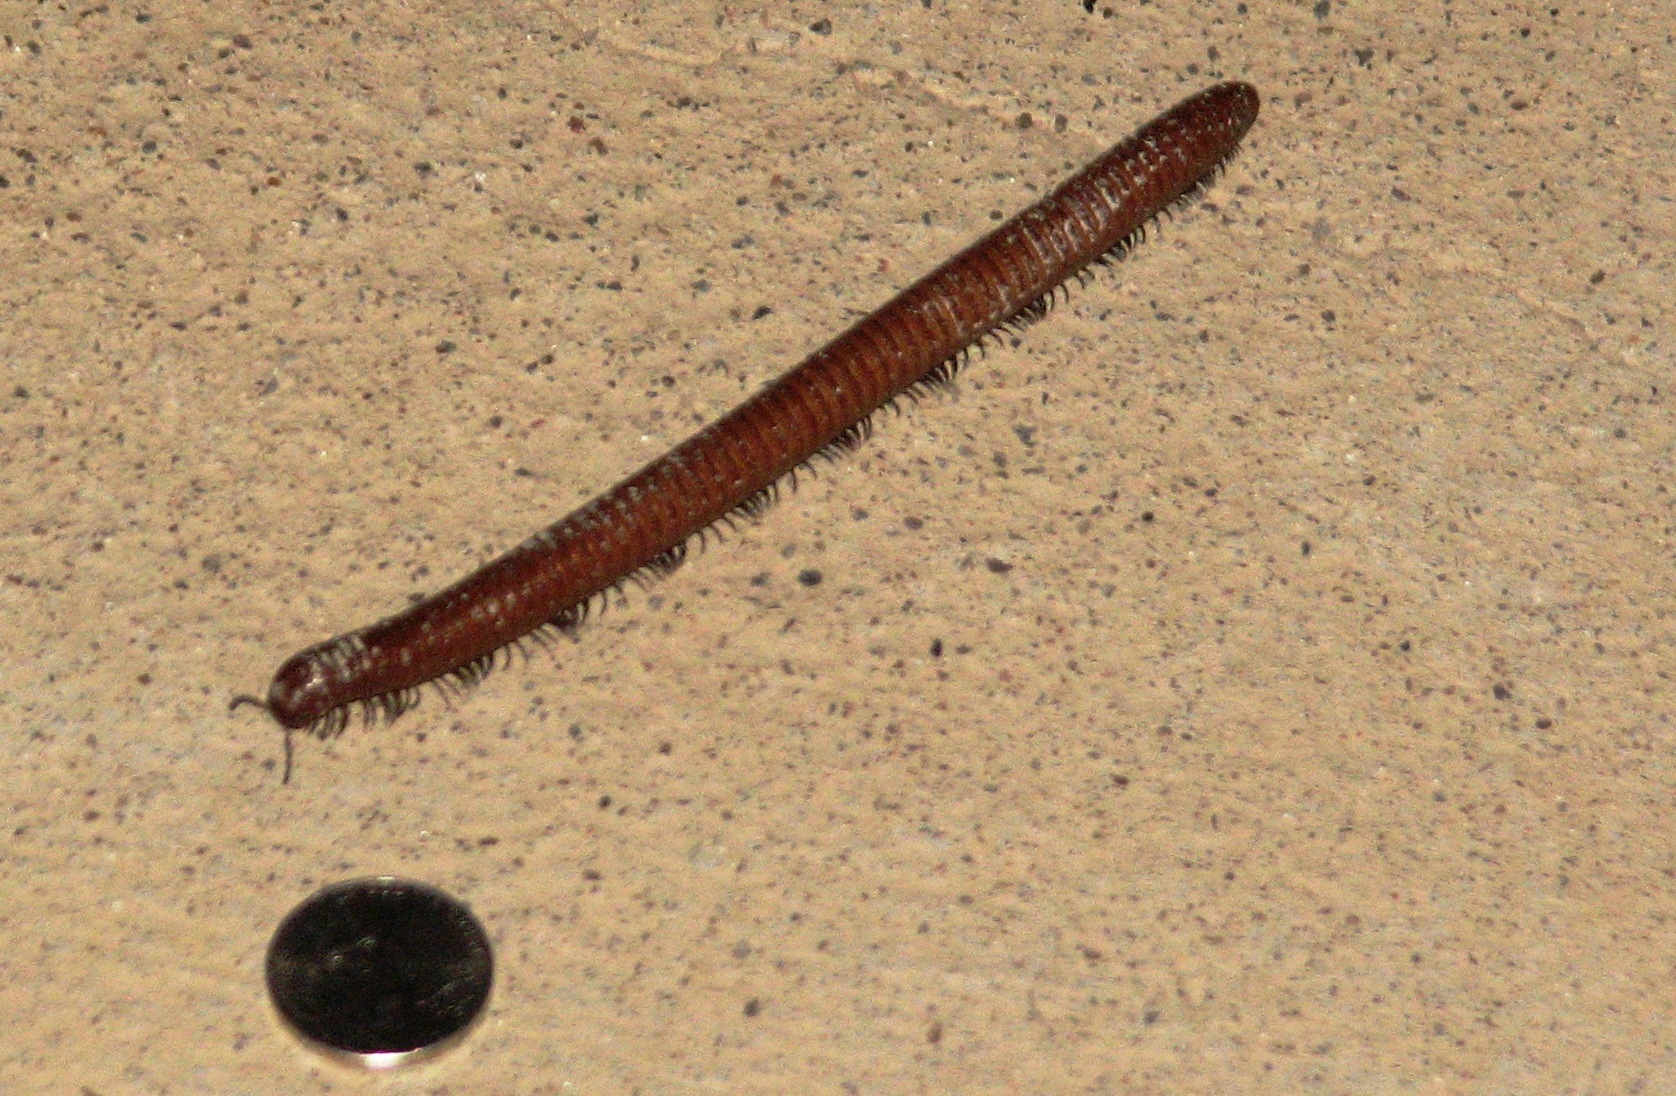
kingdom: Animalia
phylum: Arthropoda
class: Diplopoda
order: Spirostreptida
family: Spirostreptidae
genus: Orthoporus
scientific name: Orthoporus ornatus
